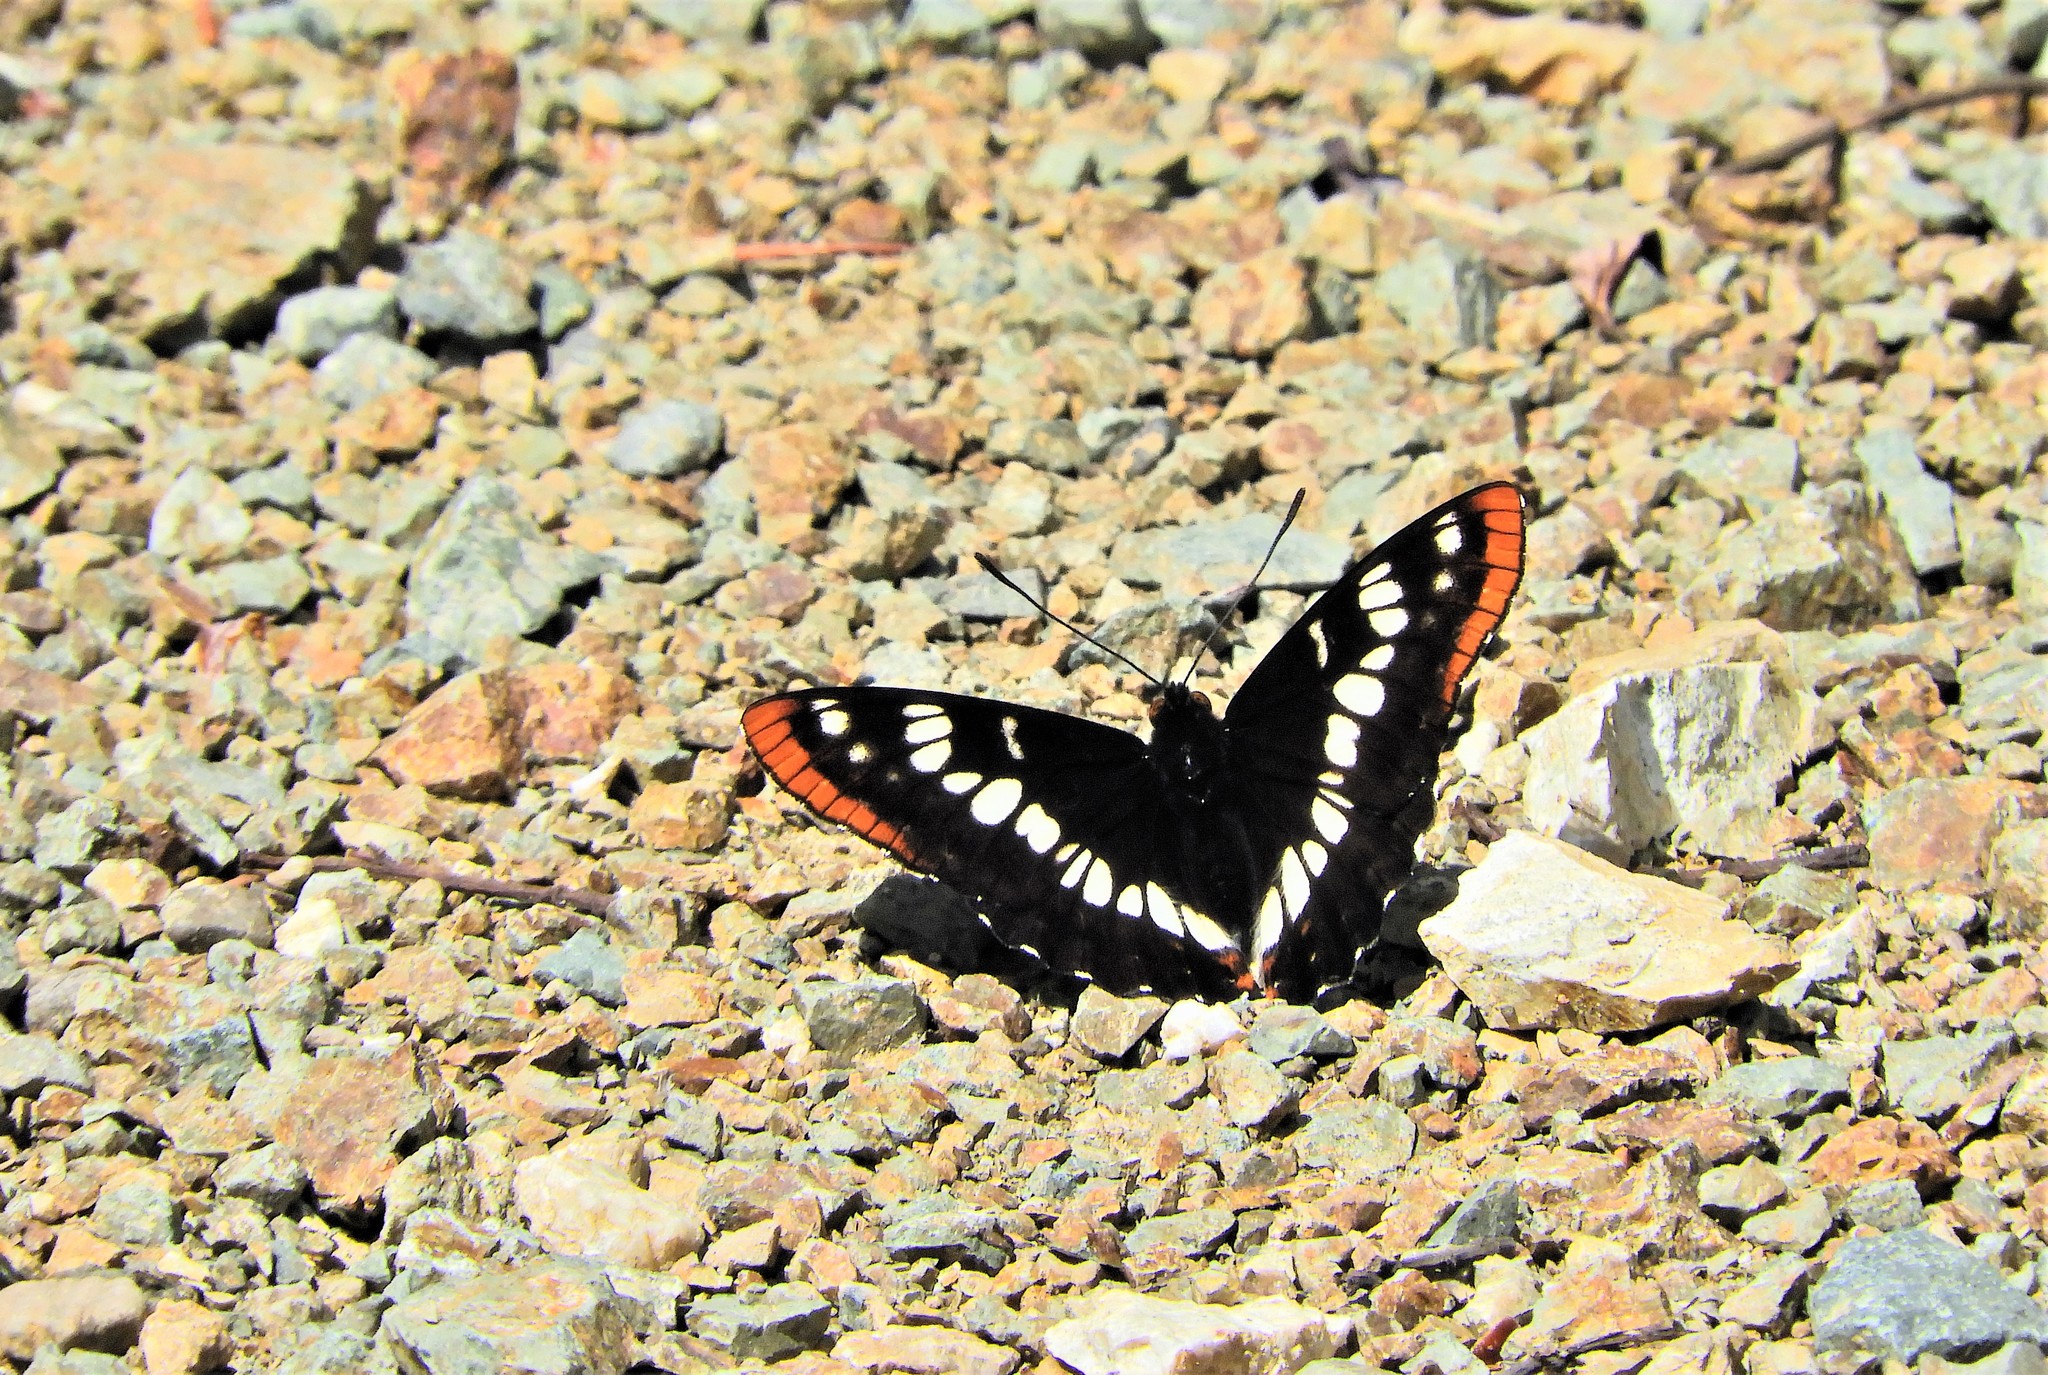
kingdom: Animalia
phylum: Arthropoda
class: Insecta
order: Lepidoptera
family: Nymphalidae
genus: Limenitis
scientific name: Limenitis lorquini
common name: Lorquin's admiral
